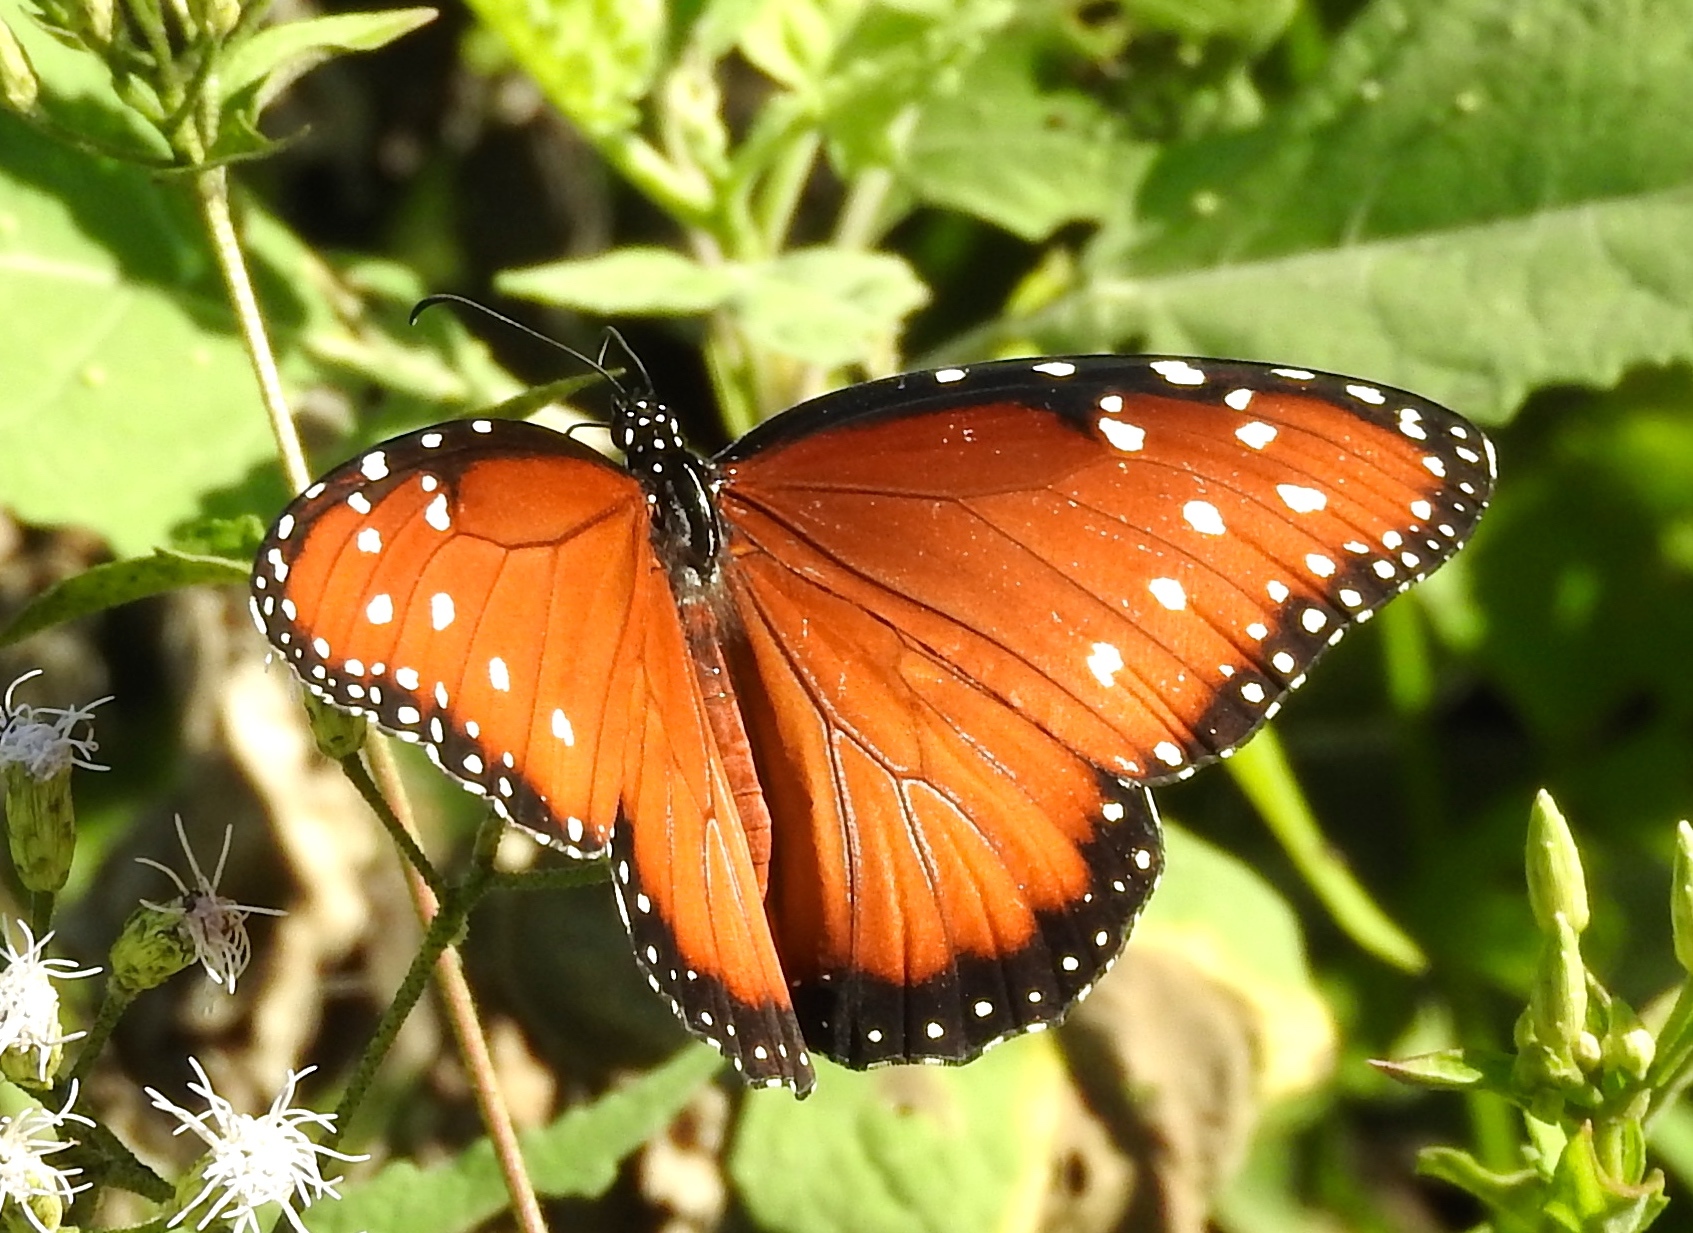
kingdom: Animalia
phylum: Arthropoda
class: Insecta
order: Lepidoptera
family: Nymphalidae
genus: Danaus
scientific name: Danaus gilippus
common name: Queen
